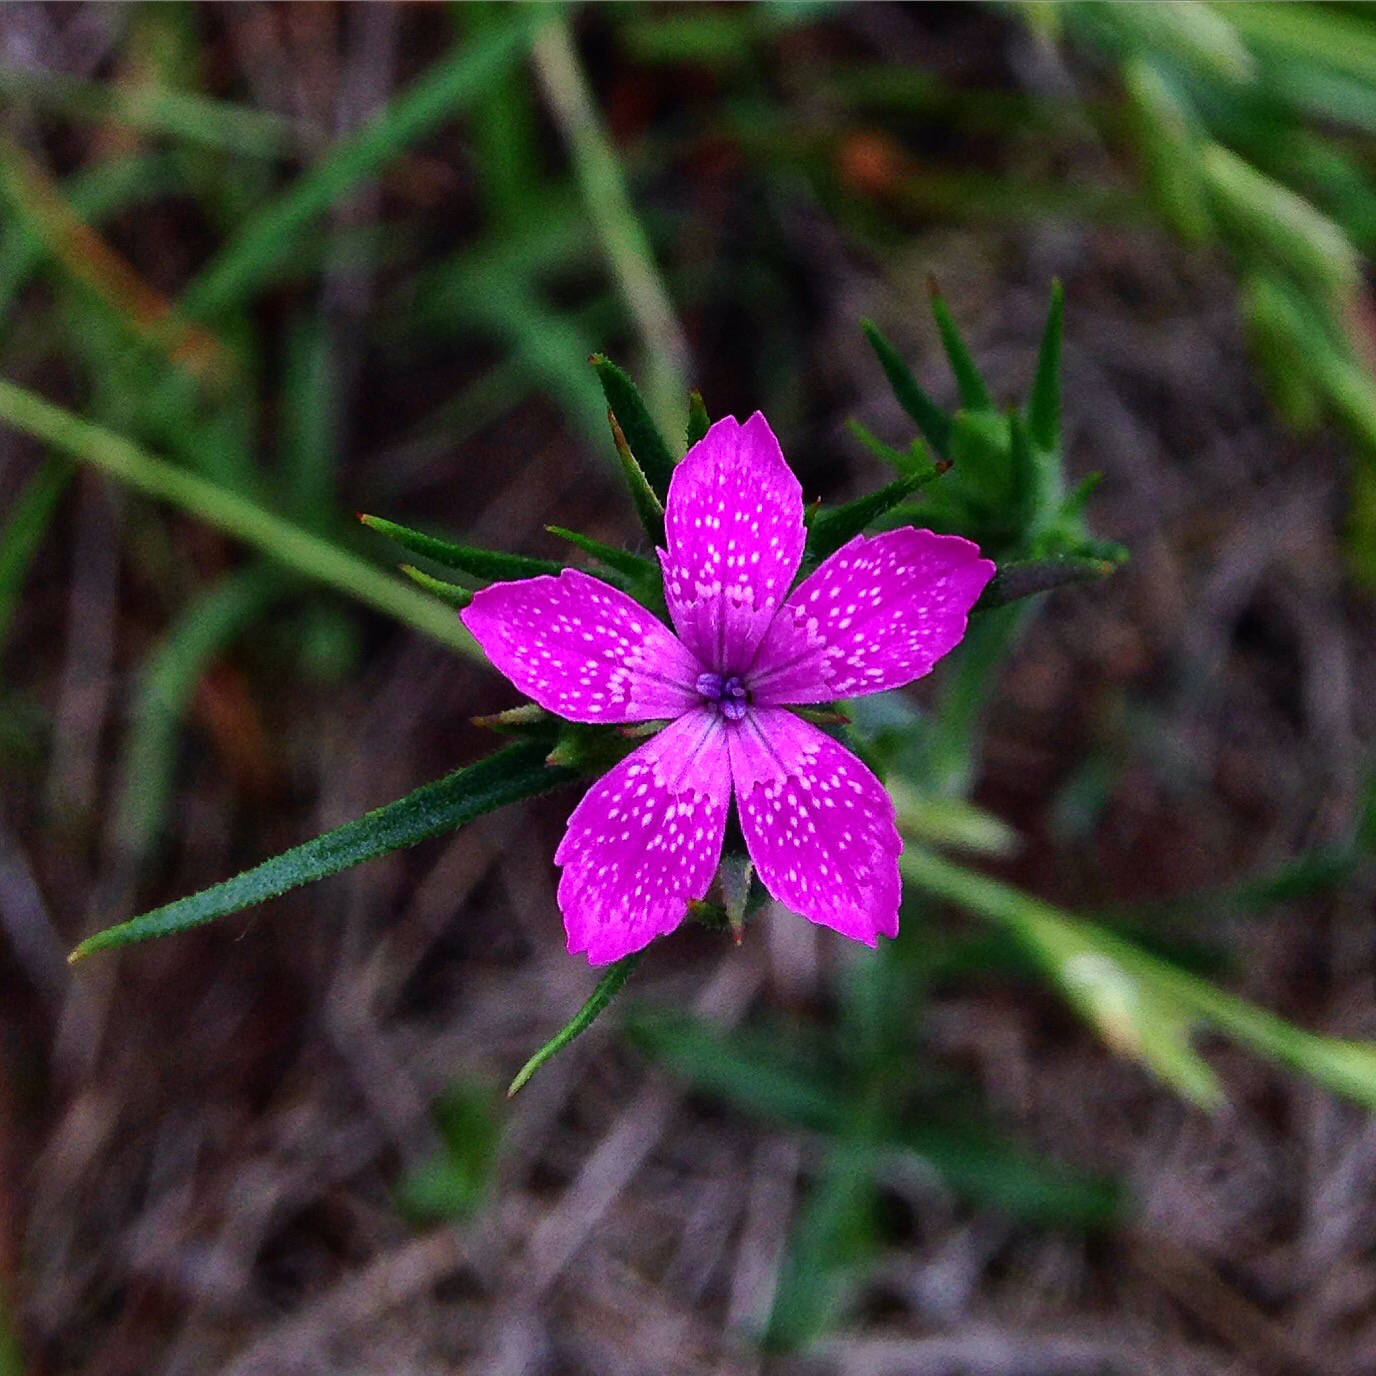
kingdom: Plantae
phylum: Tracheophyta
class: Magnoliopsida
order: Caryophyllales
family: Caryophyllaceae
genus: Dianthus
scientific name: Dianthus armeria
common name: Deptford pink
